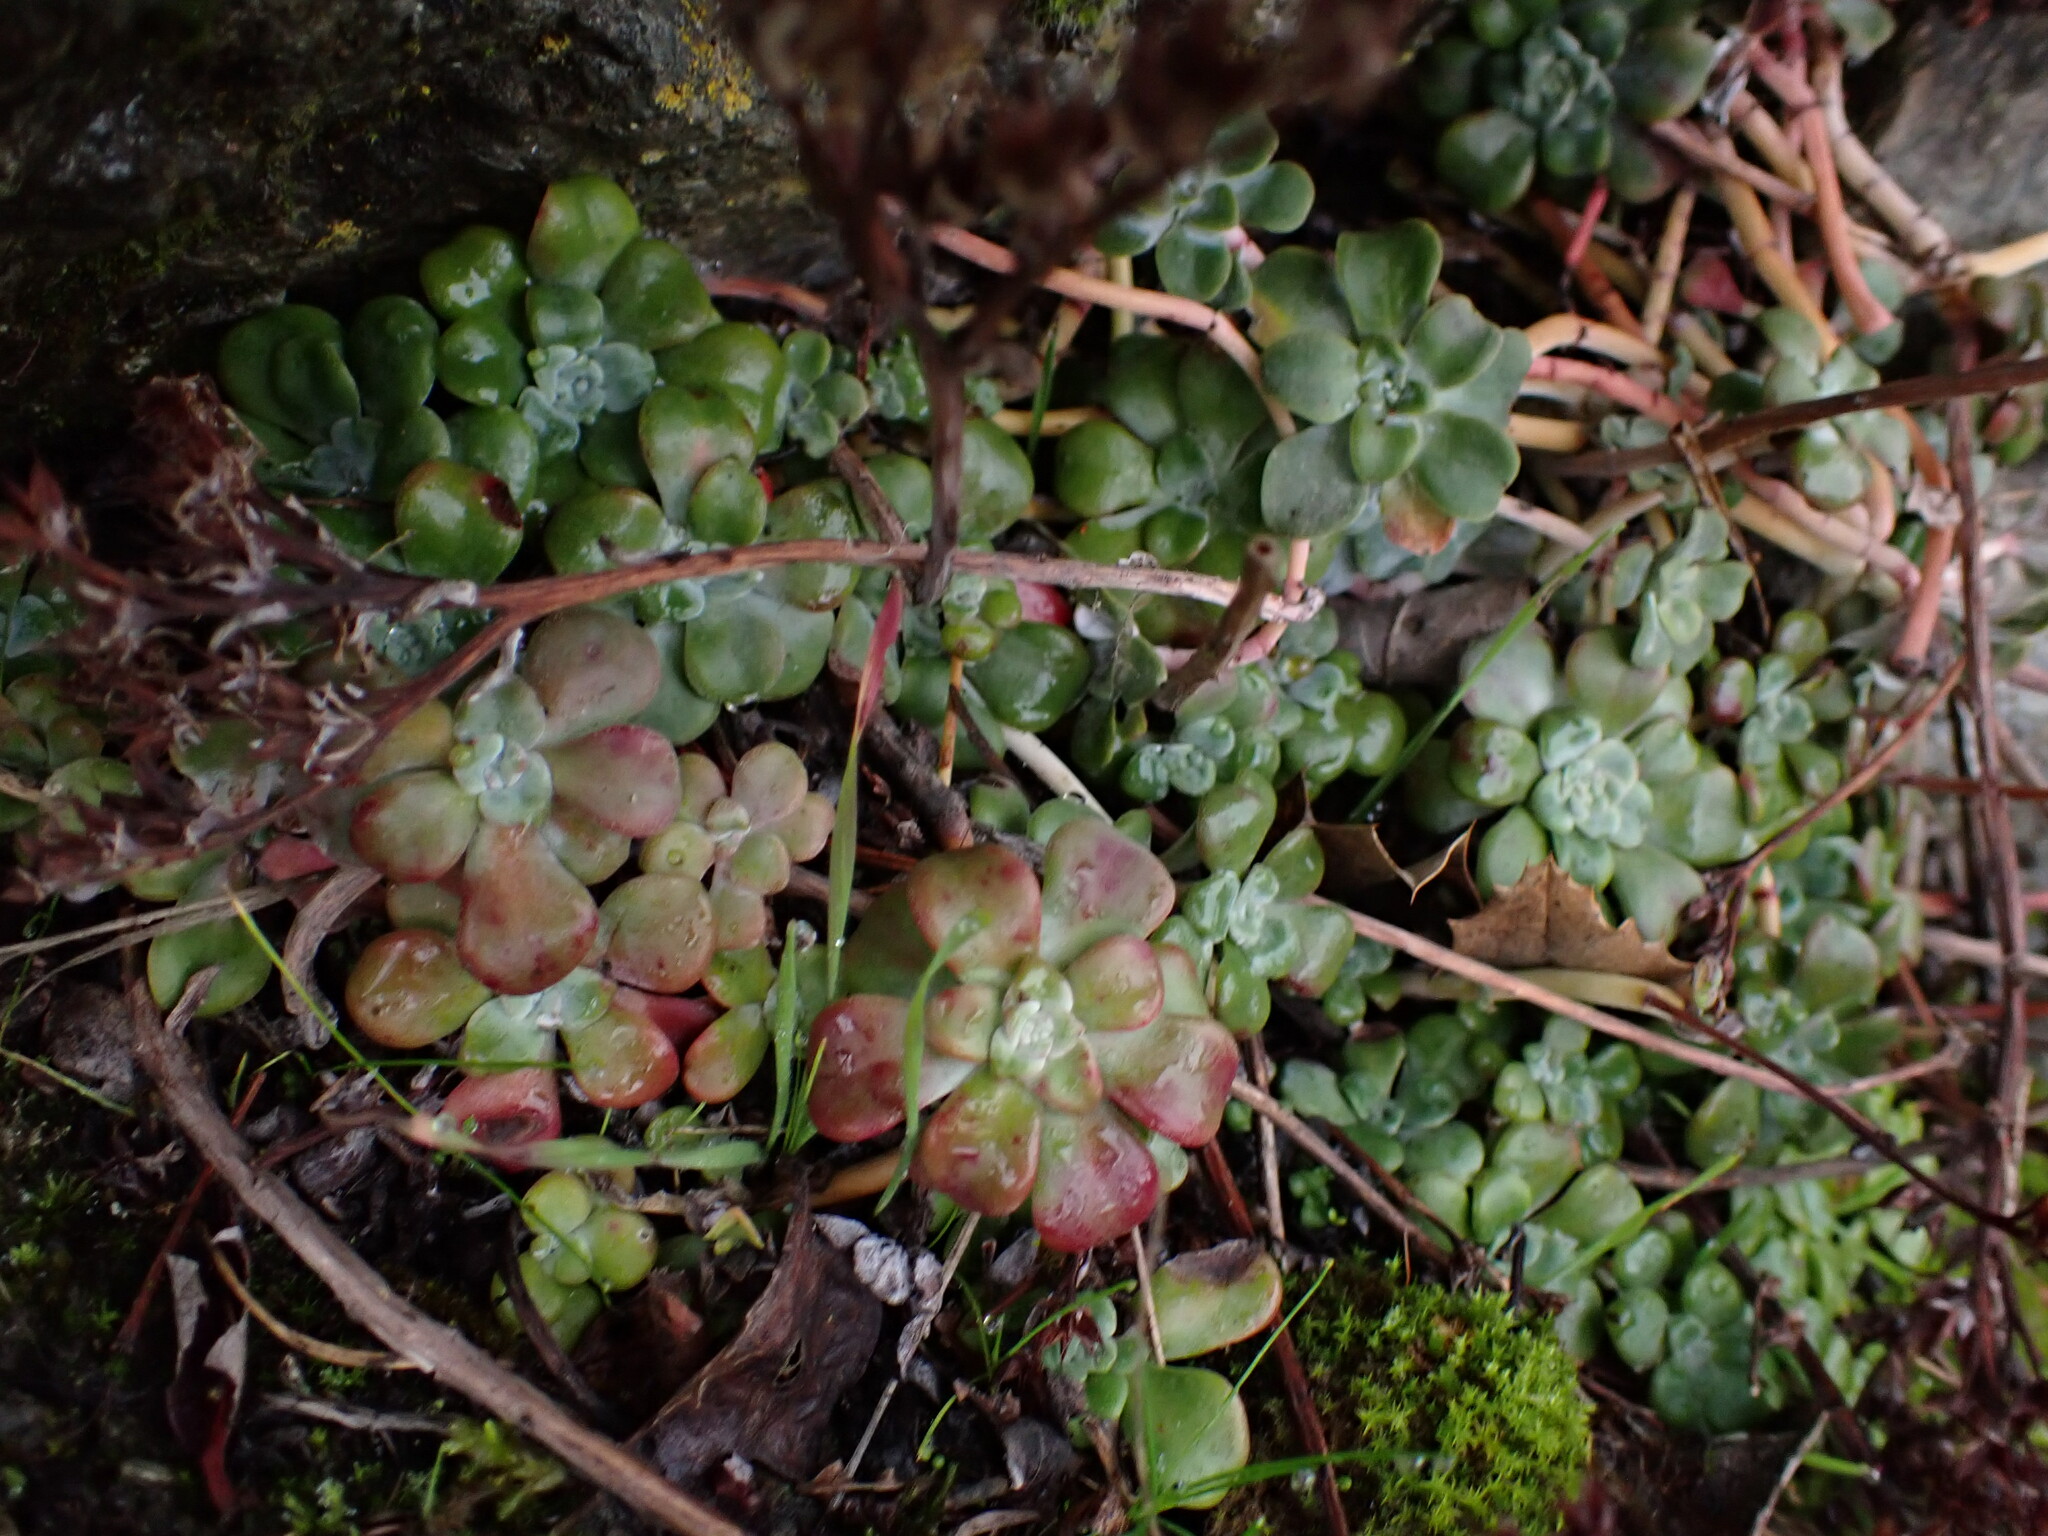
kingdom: Plantae
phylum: Tracheophyta
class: Magnoliopsida
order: Saxifragales
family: Crassulaceae
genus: Sedum
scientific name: Sedum spathulifolium
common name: Colorado stonecrop
